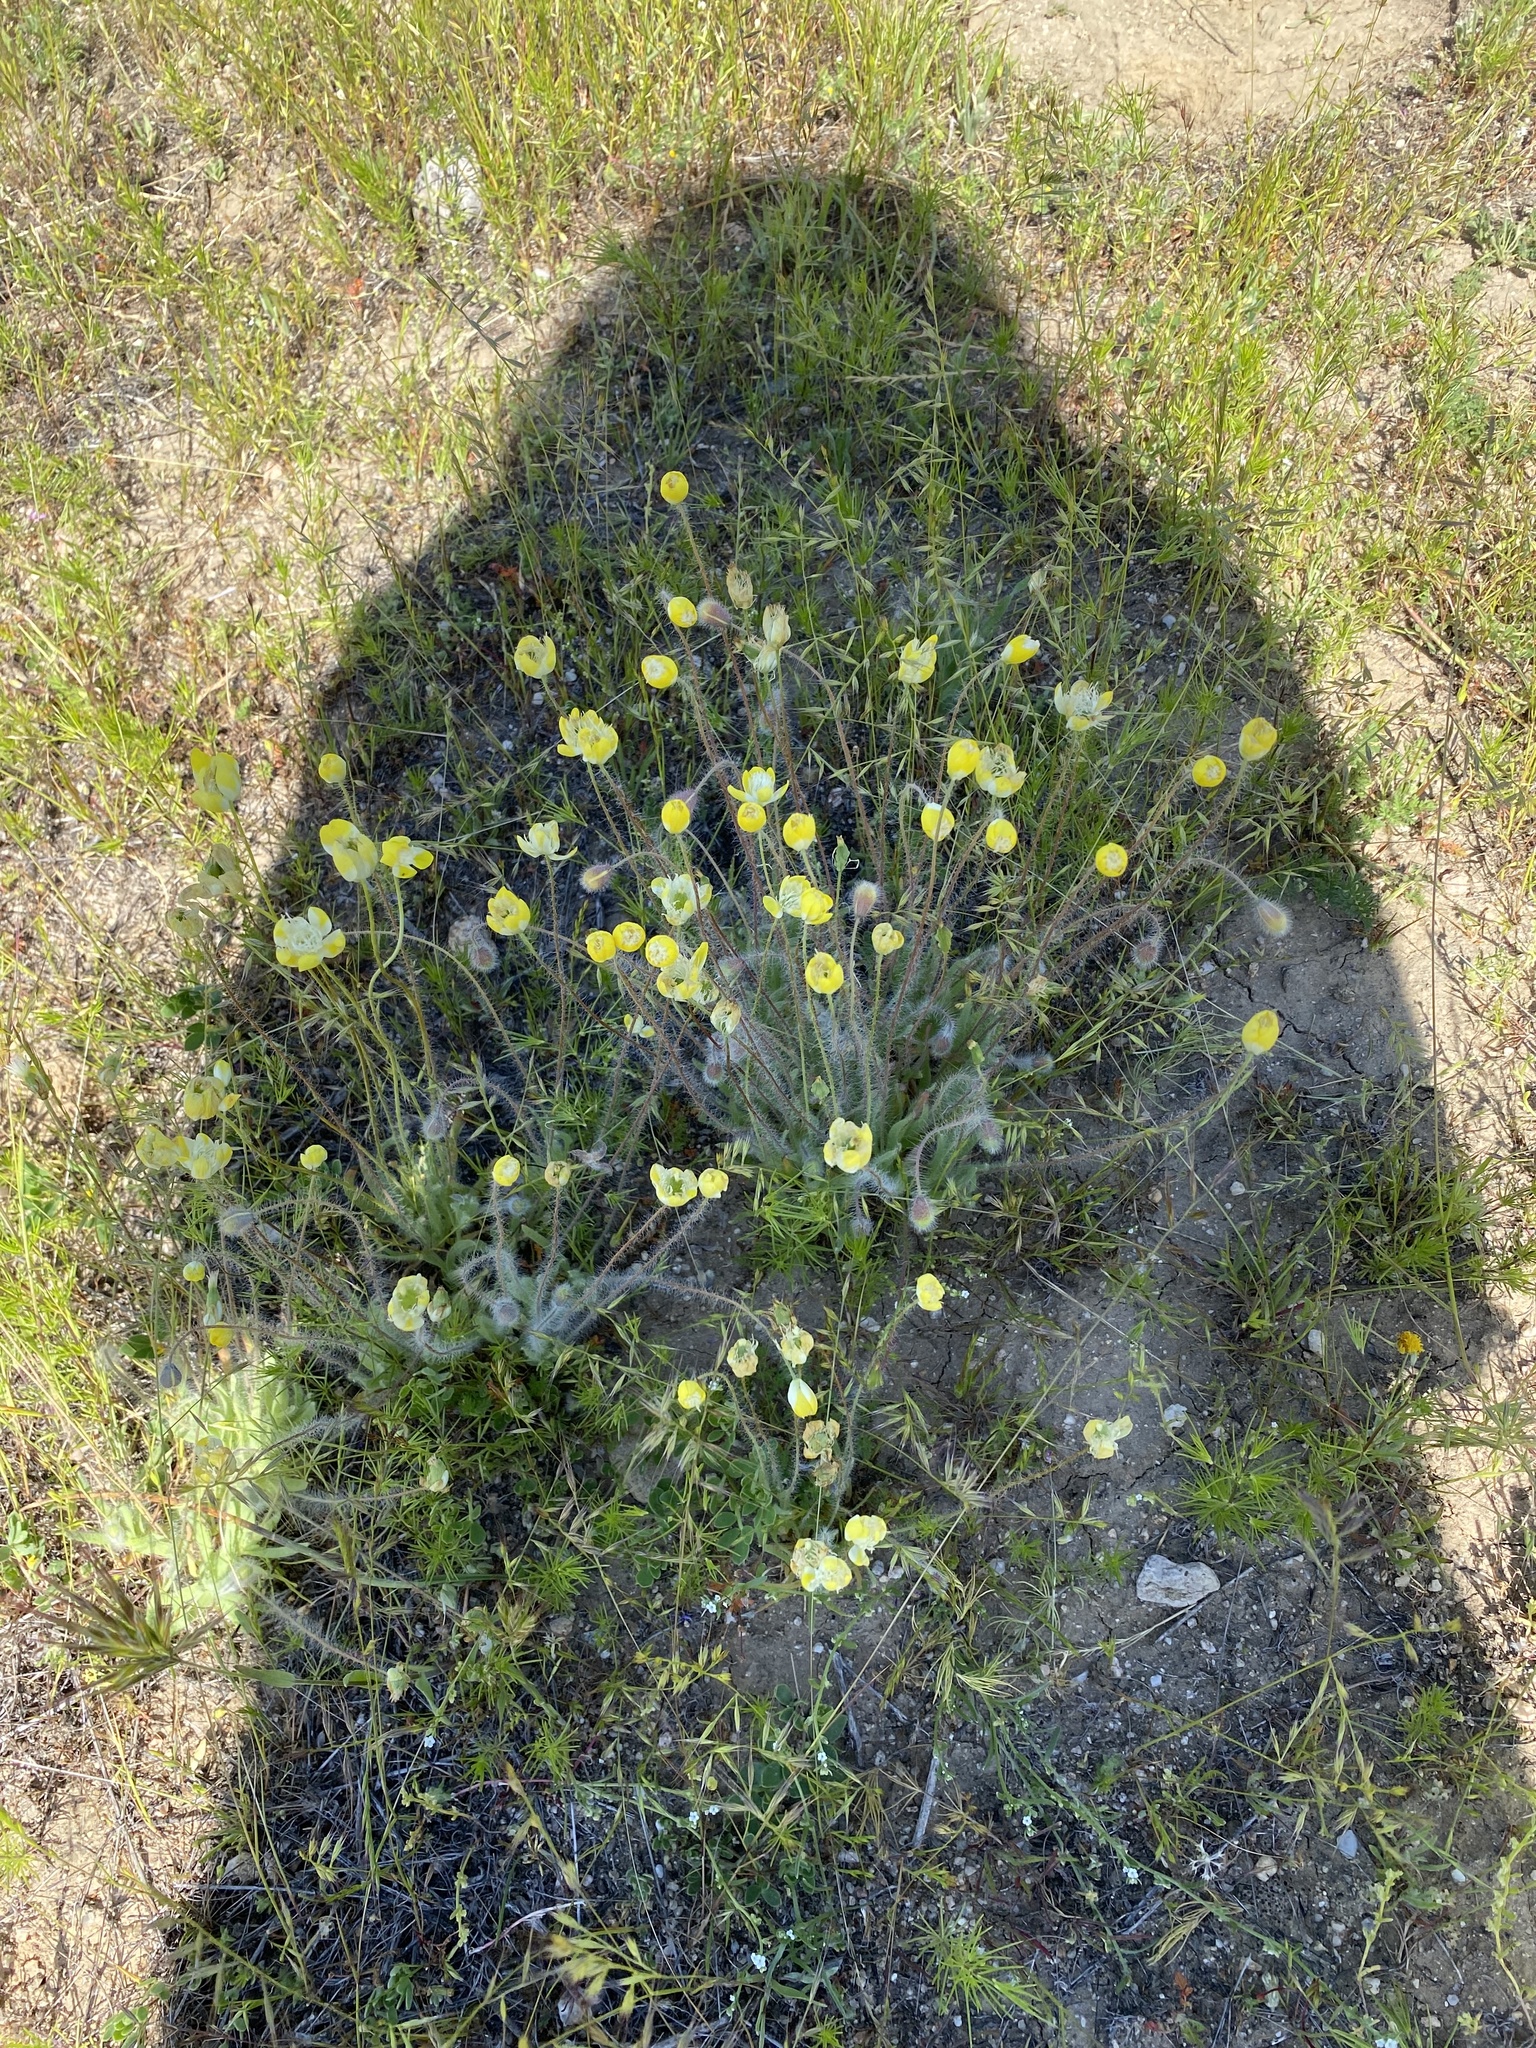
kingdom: Plantae
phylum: Tracheophyta
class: Magnoliopsida
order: Ranunculales
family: Papaveraceae
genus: Platystemon
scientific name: Platystemon californicus
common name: Cream-cups
